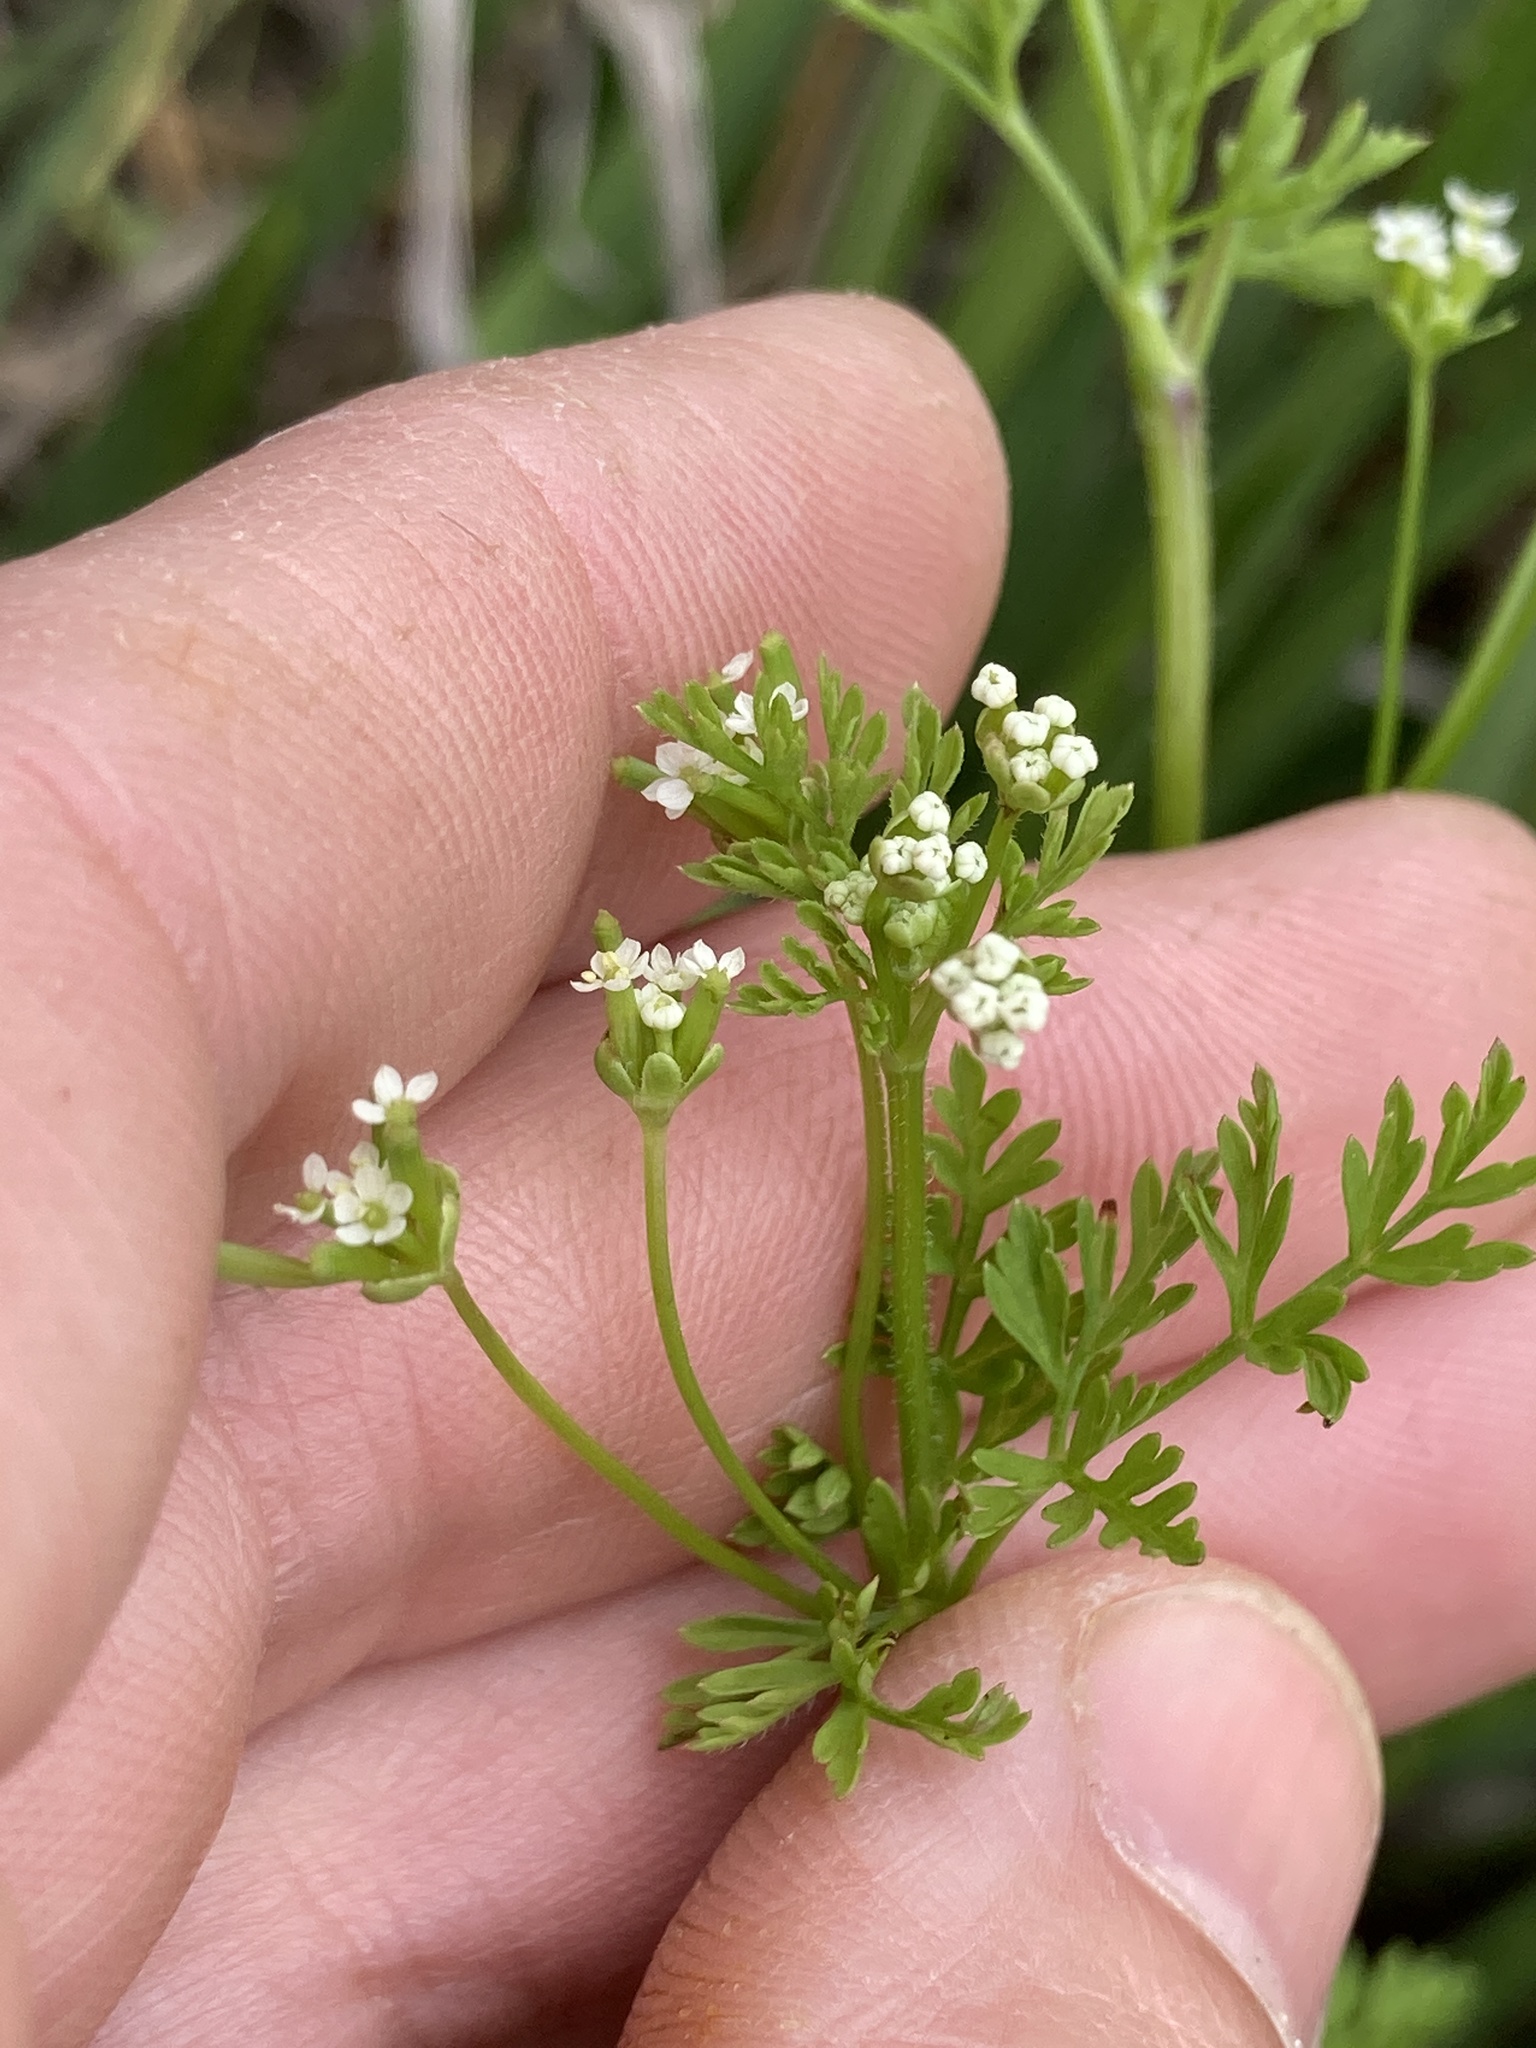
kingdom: Plantae
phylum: Tracheophyta
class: Magnoliopsida
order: Apiales
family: Apiaceae
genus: Chaerophyllum
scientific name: Chaerophyllum tainturieri
